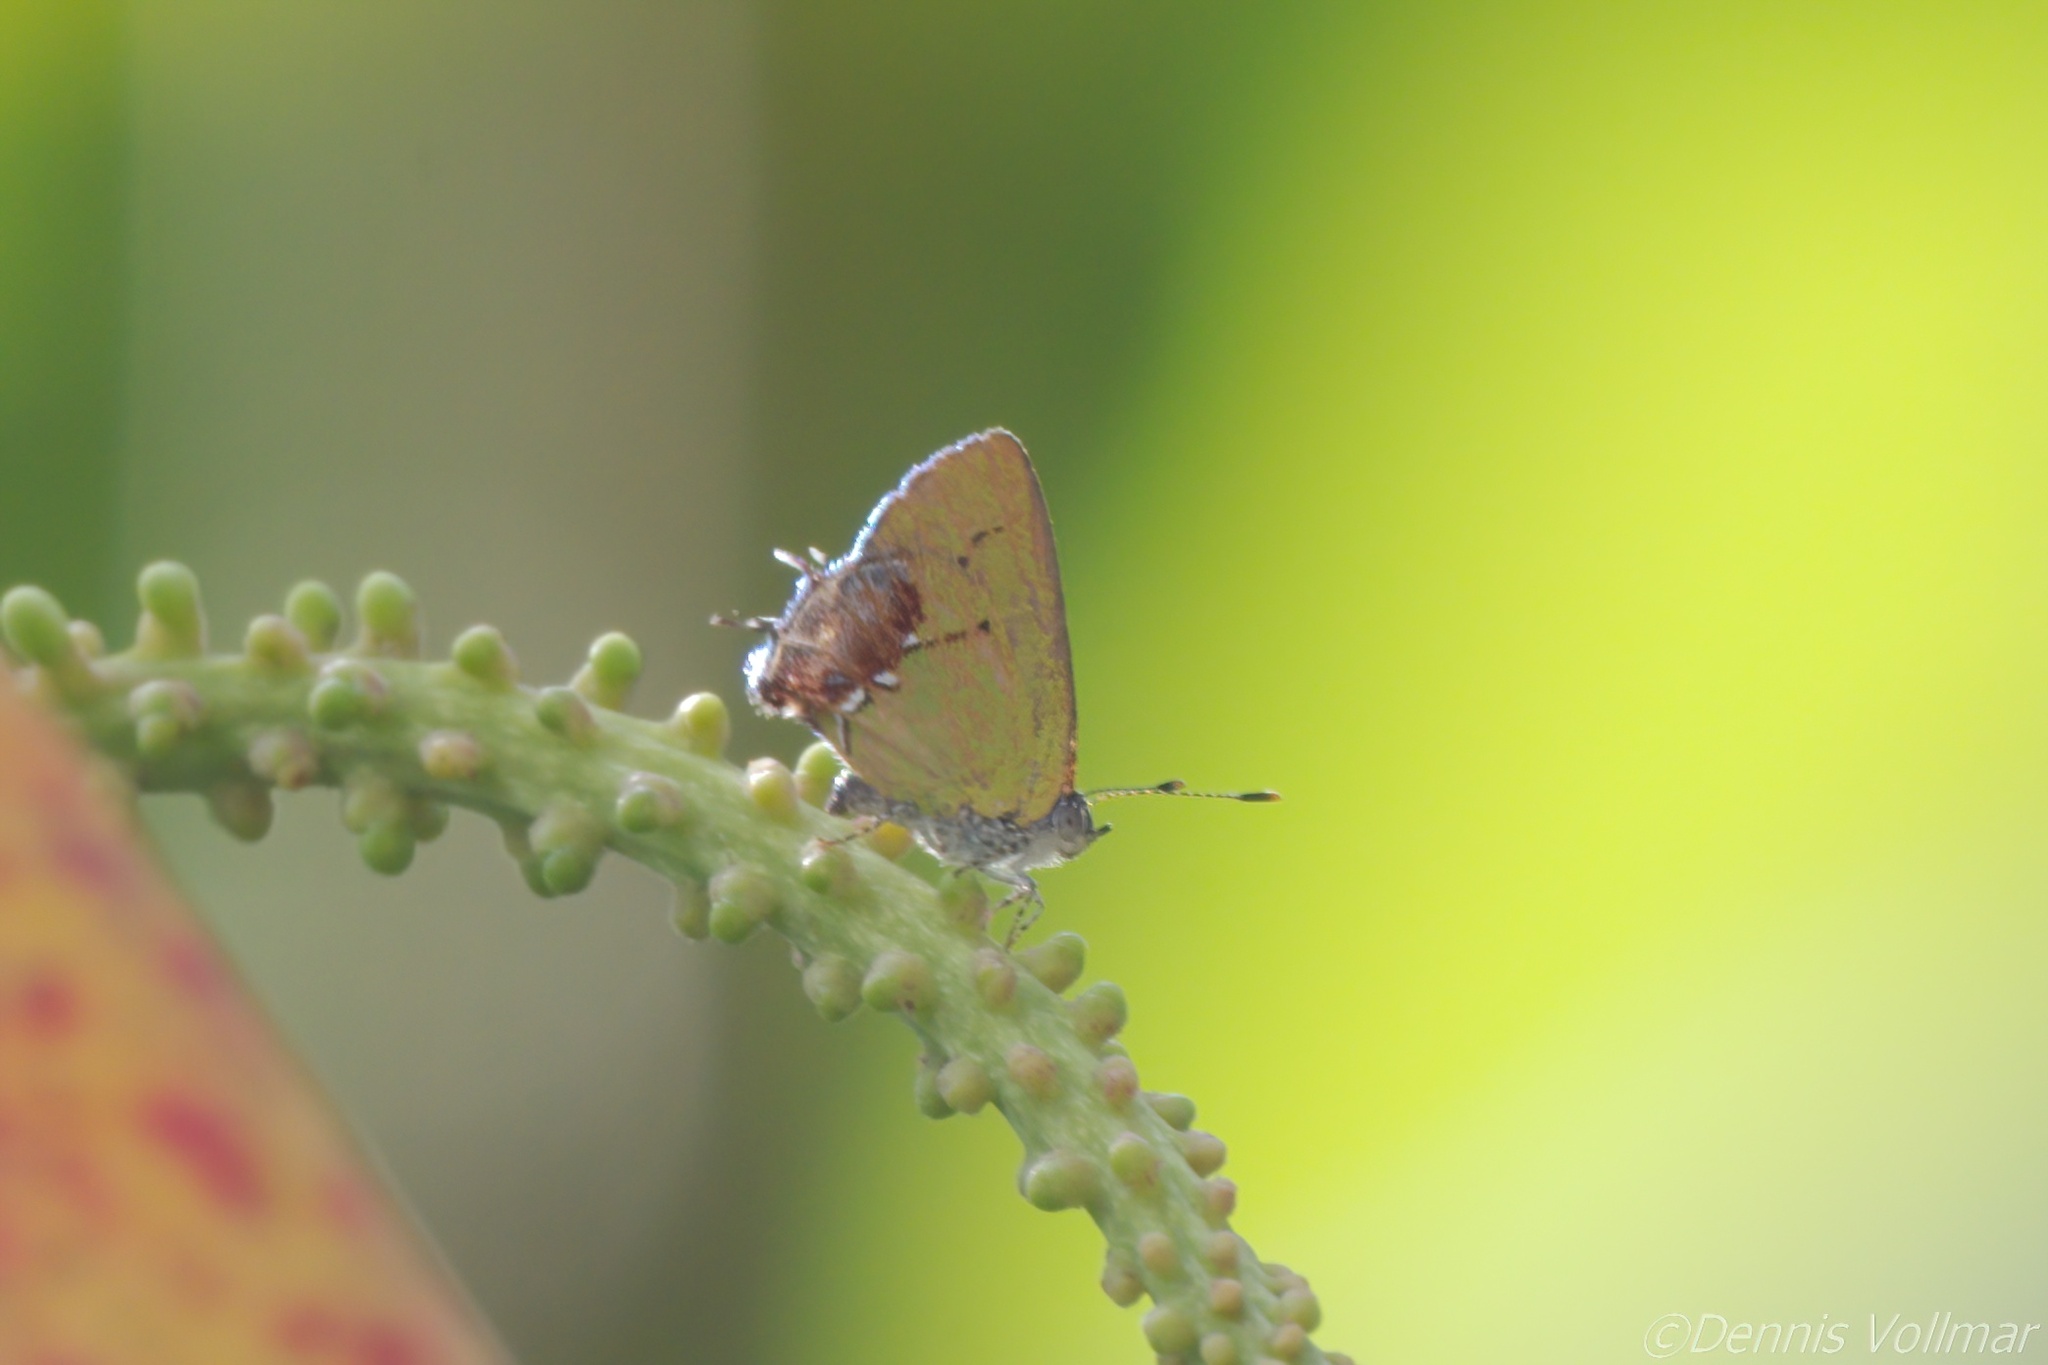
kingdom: Animalia
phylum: Arthropoda
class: Insecta
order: Lepidoptera
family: Lycaenidae
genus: Thecla
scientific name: Thecla maesites
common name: Verde azul hairstreak
